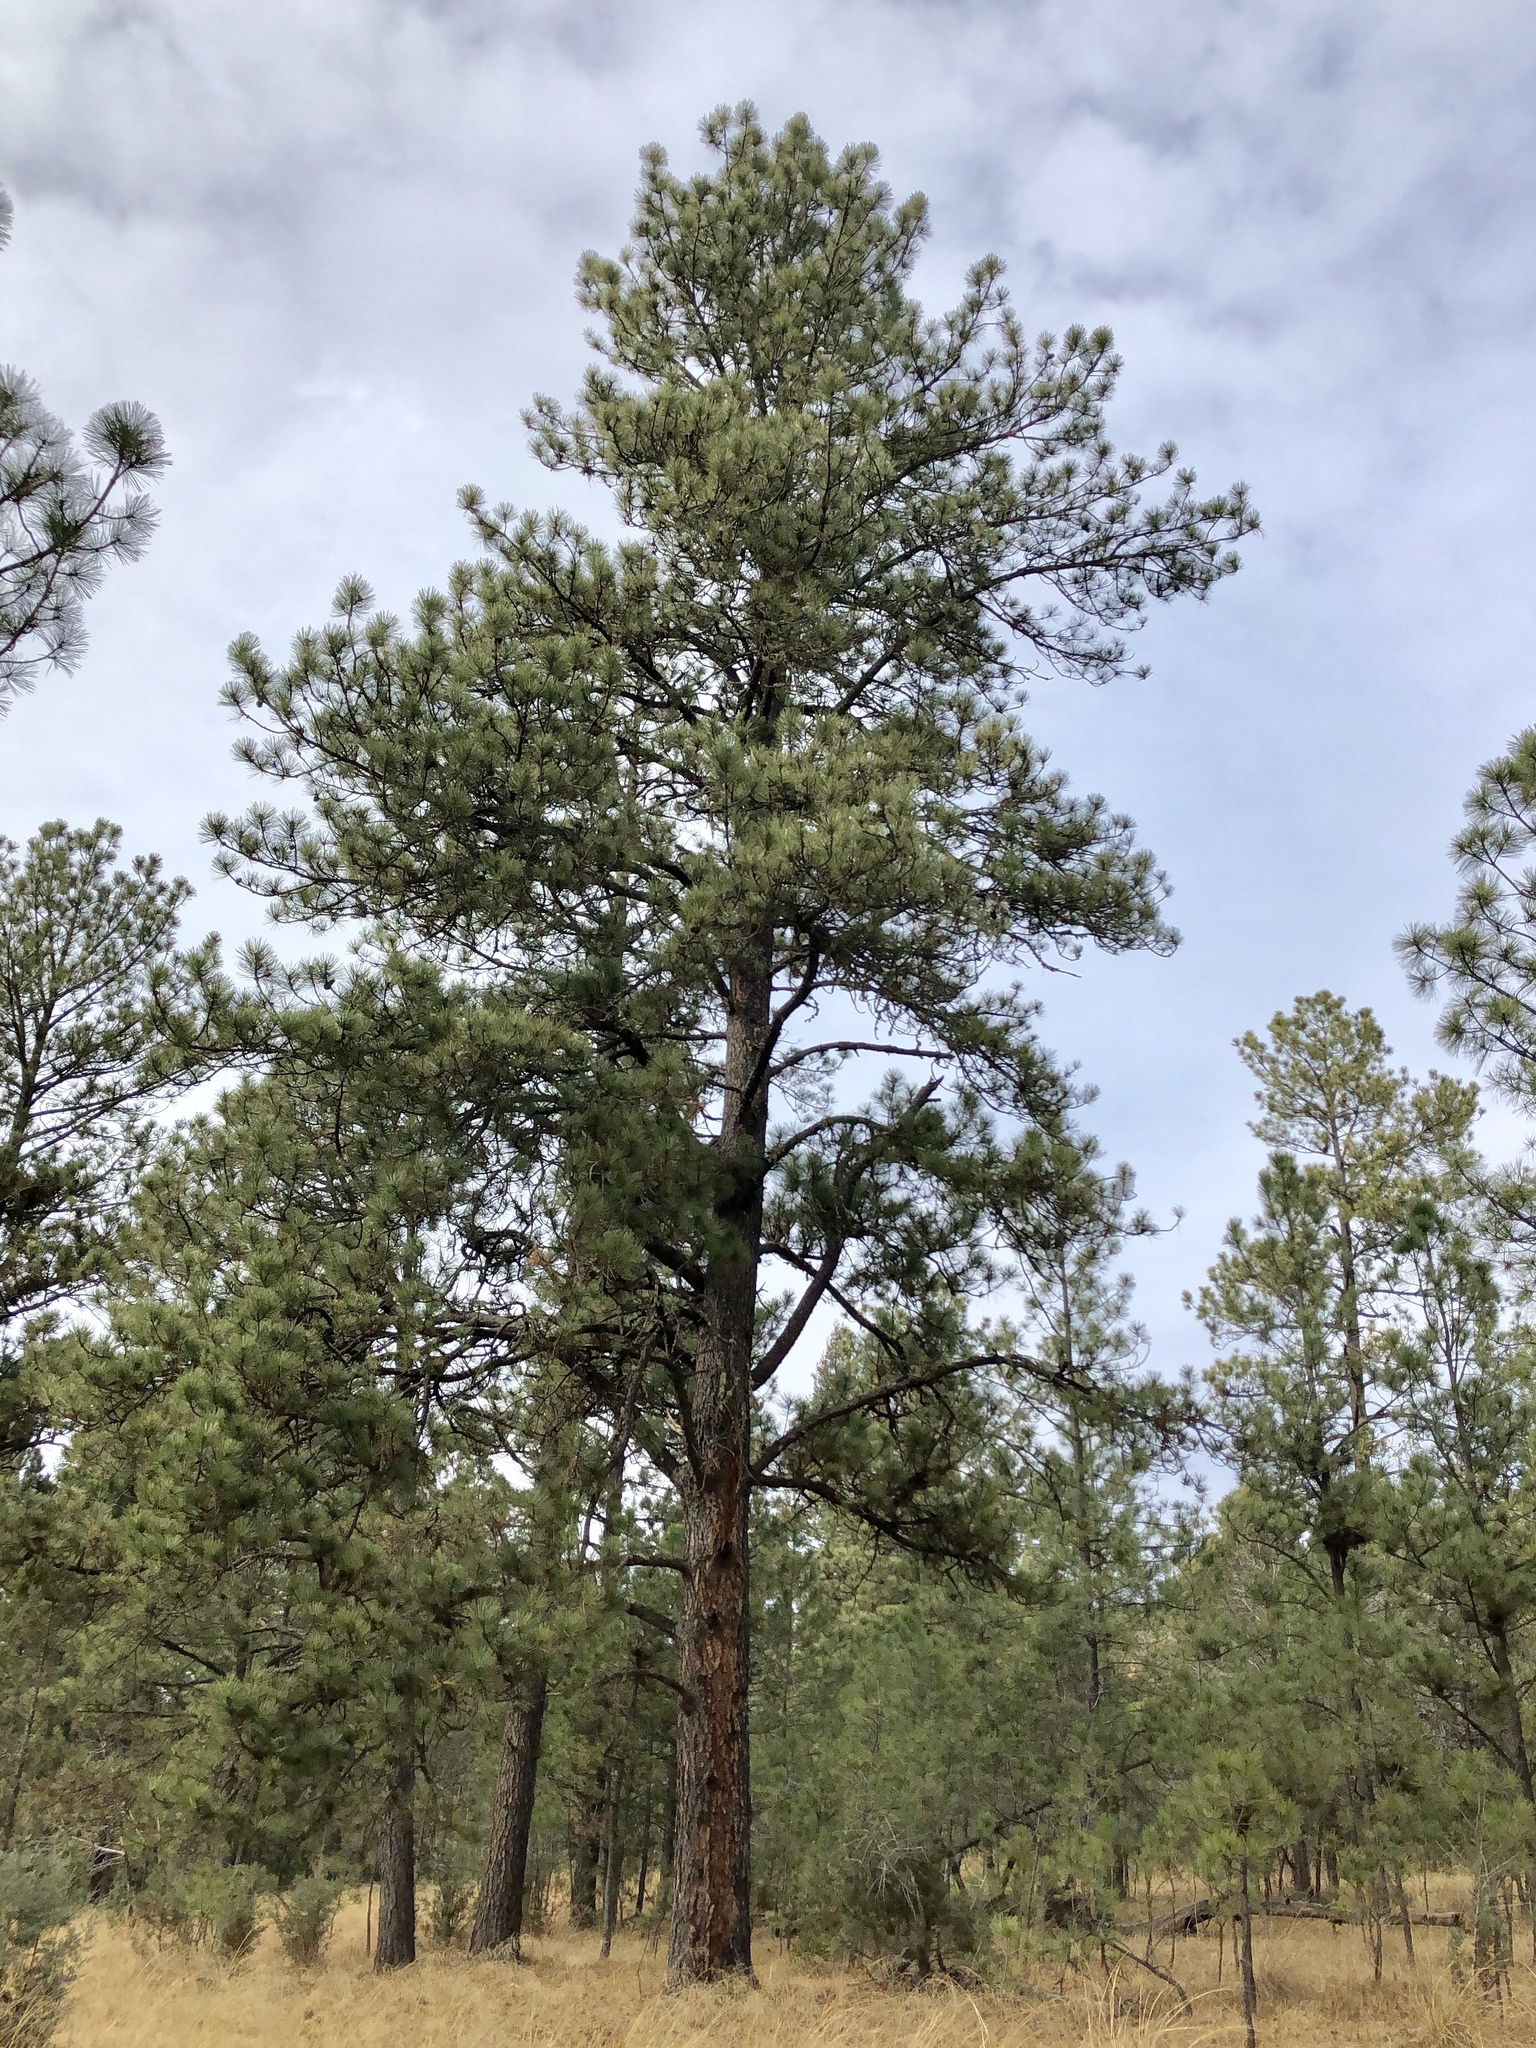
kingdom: Plantae
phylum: Tracheophyta
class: Pinopsida
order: Pinales
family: Pinaceae
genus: Pinus
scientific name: Pinus ponderosa
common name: Western yellow-pine
